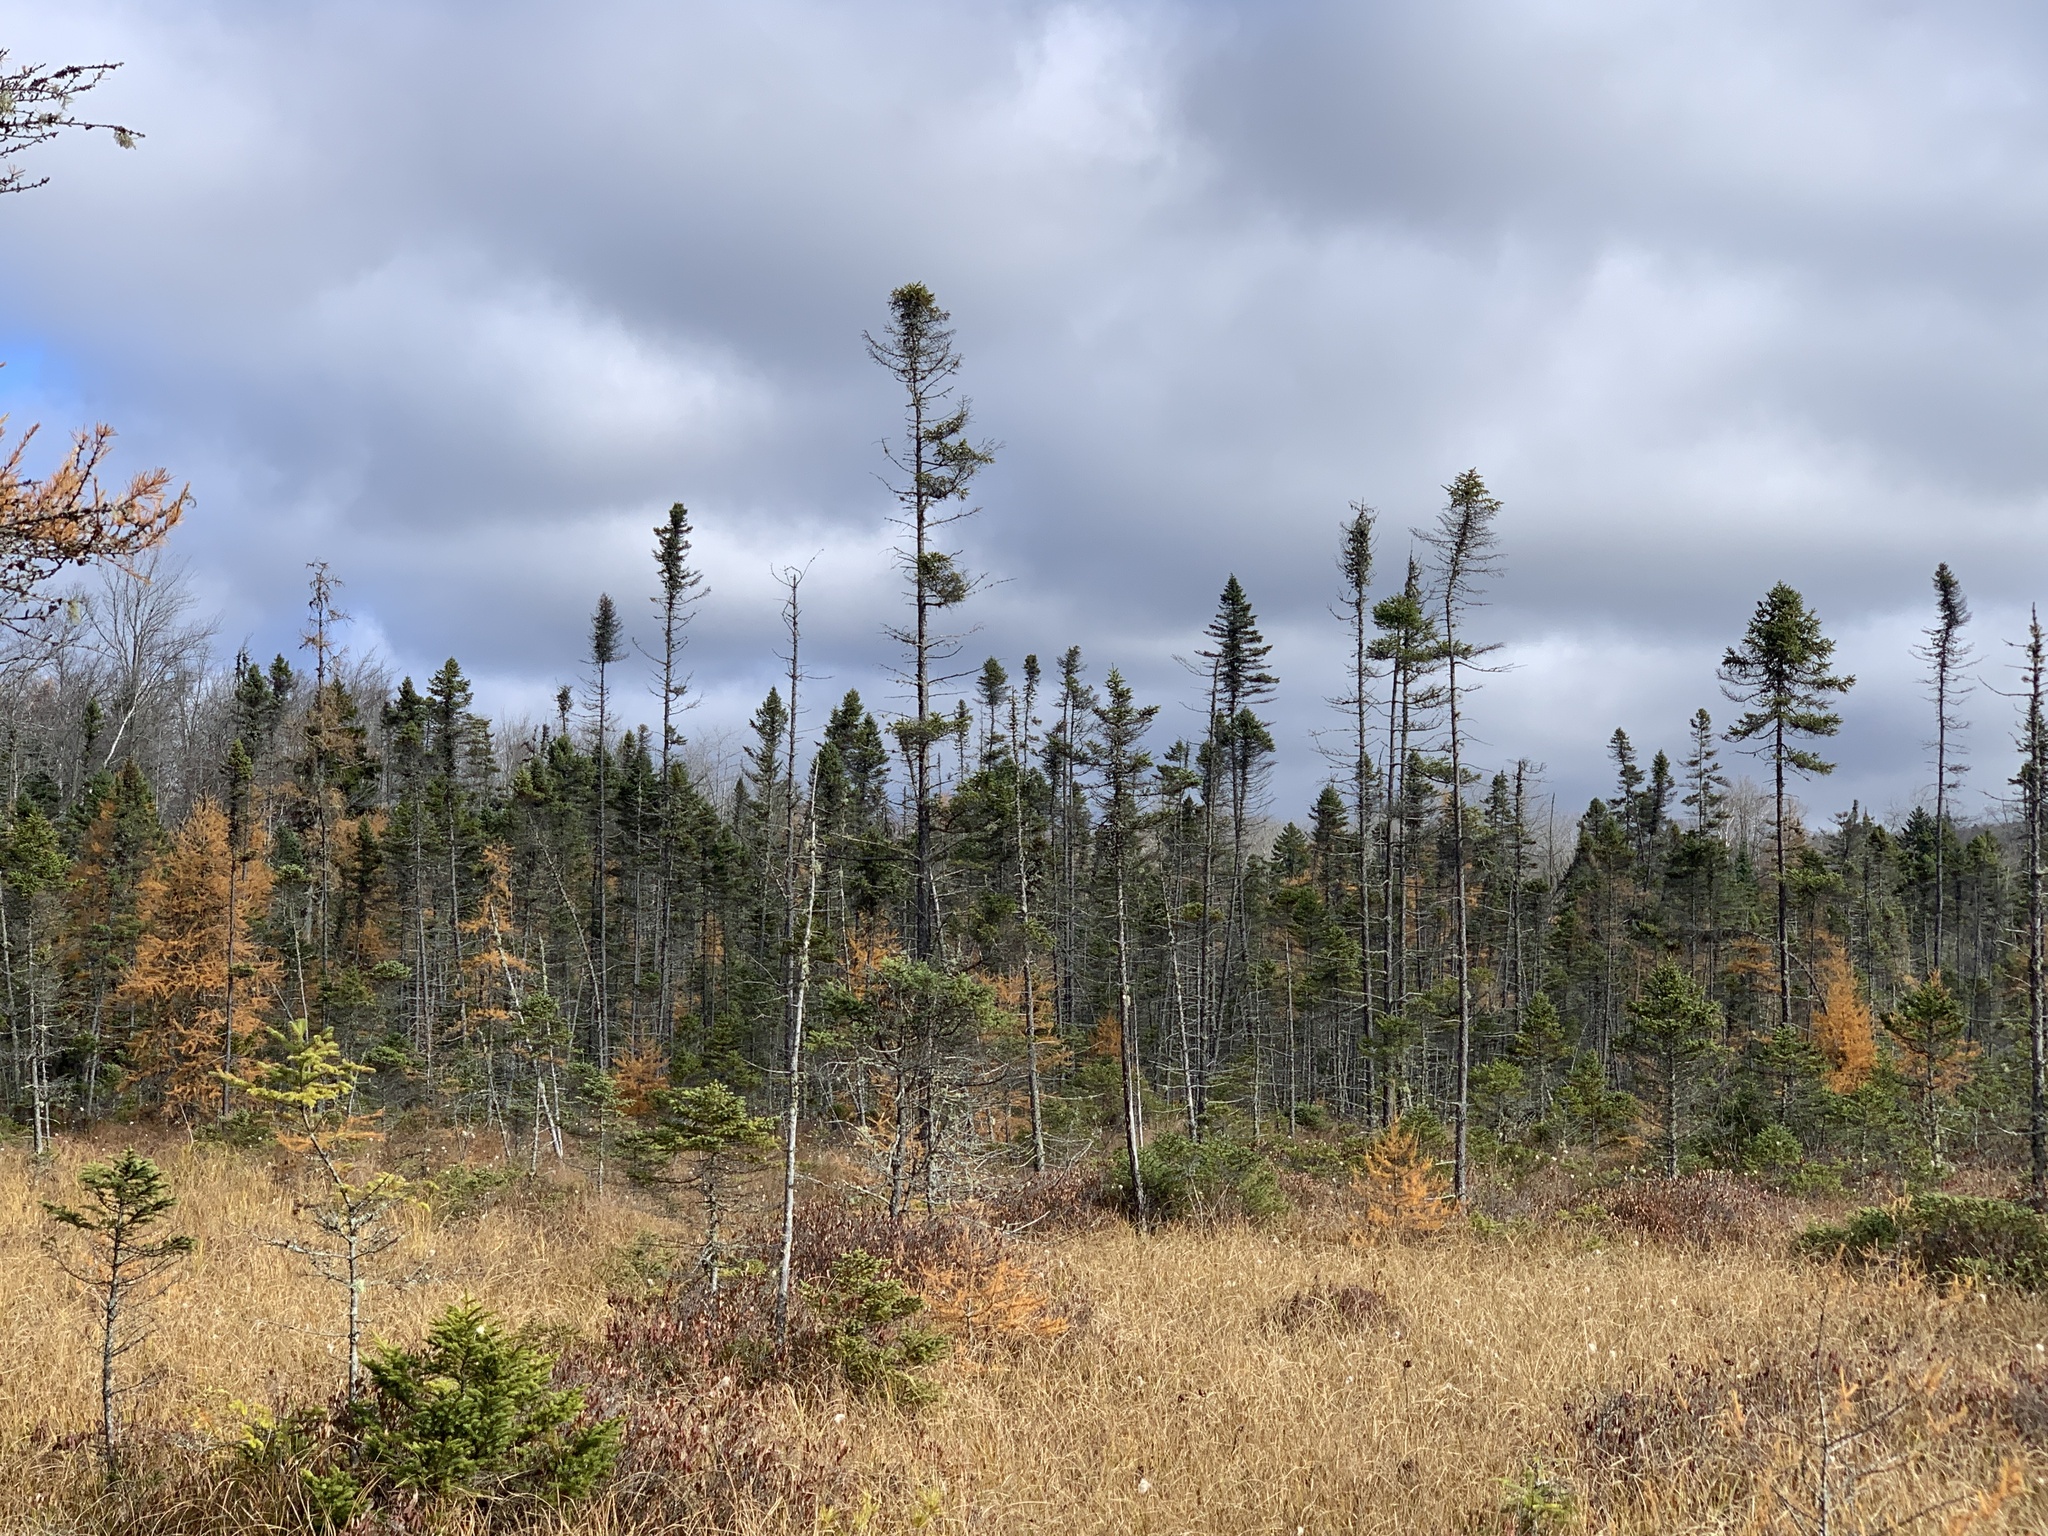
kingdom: Plantae
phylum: Tracheophyta
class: Pinopsida
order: Pinales
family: Pinaceae
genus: Picea
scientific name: Picea mariana
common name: Black spruce
